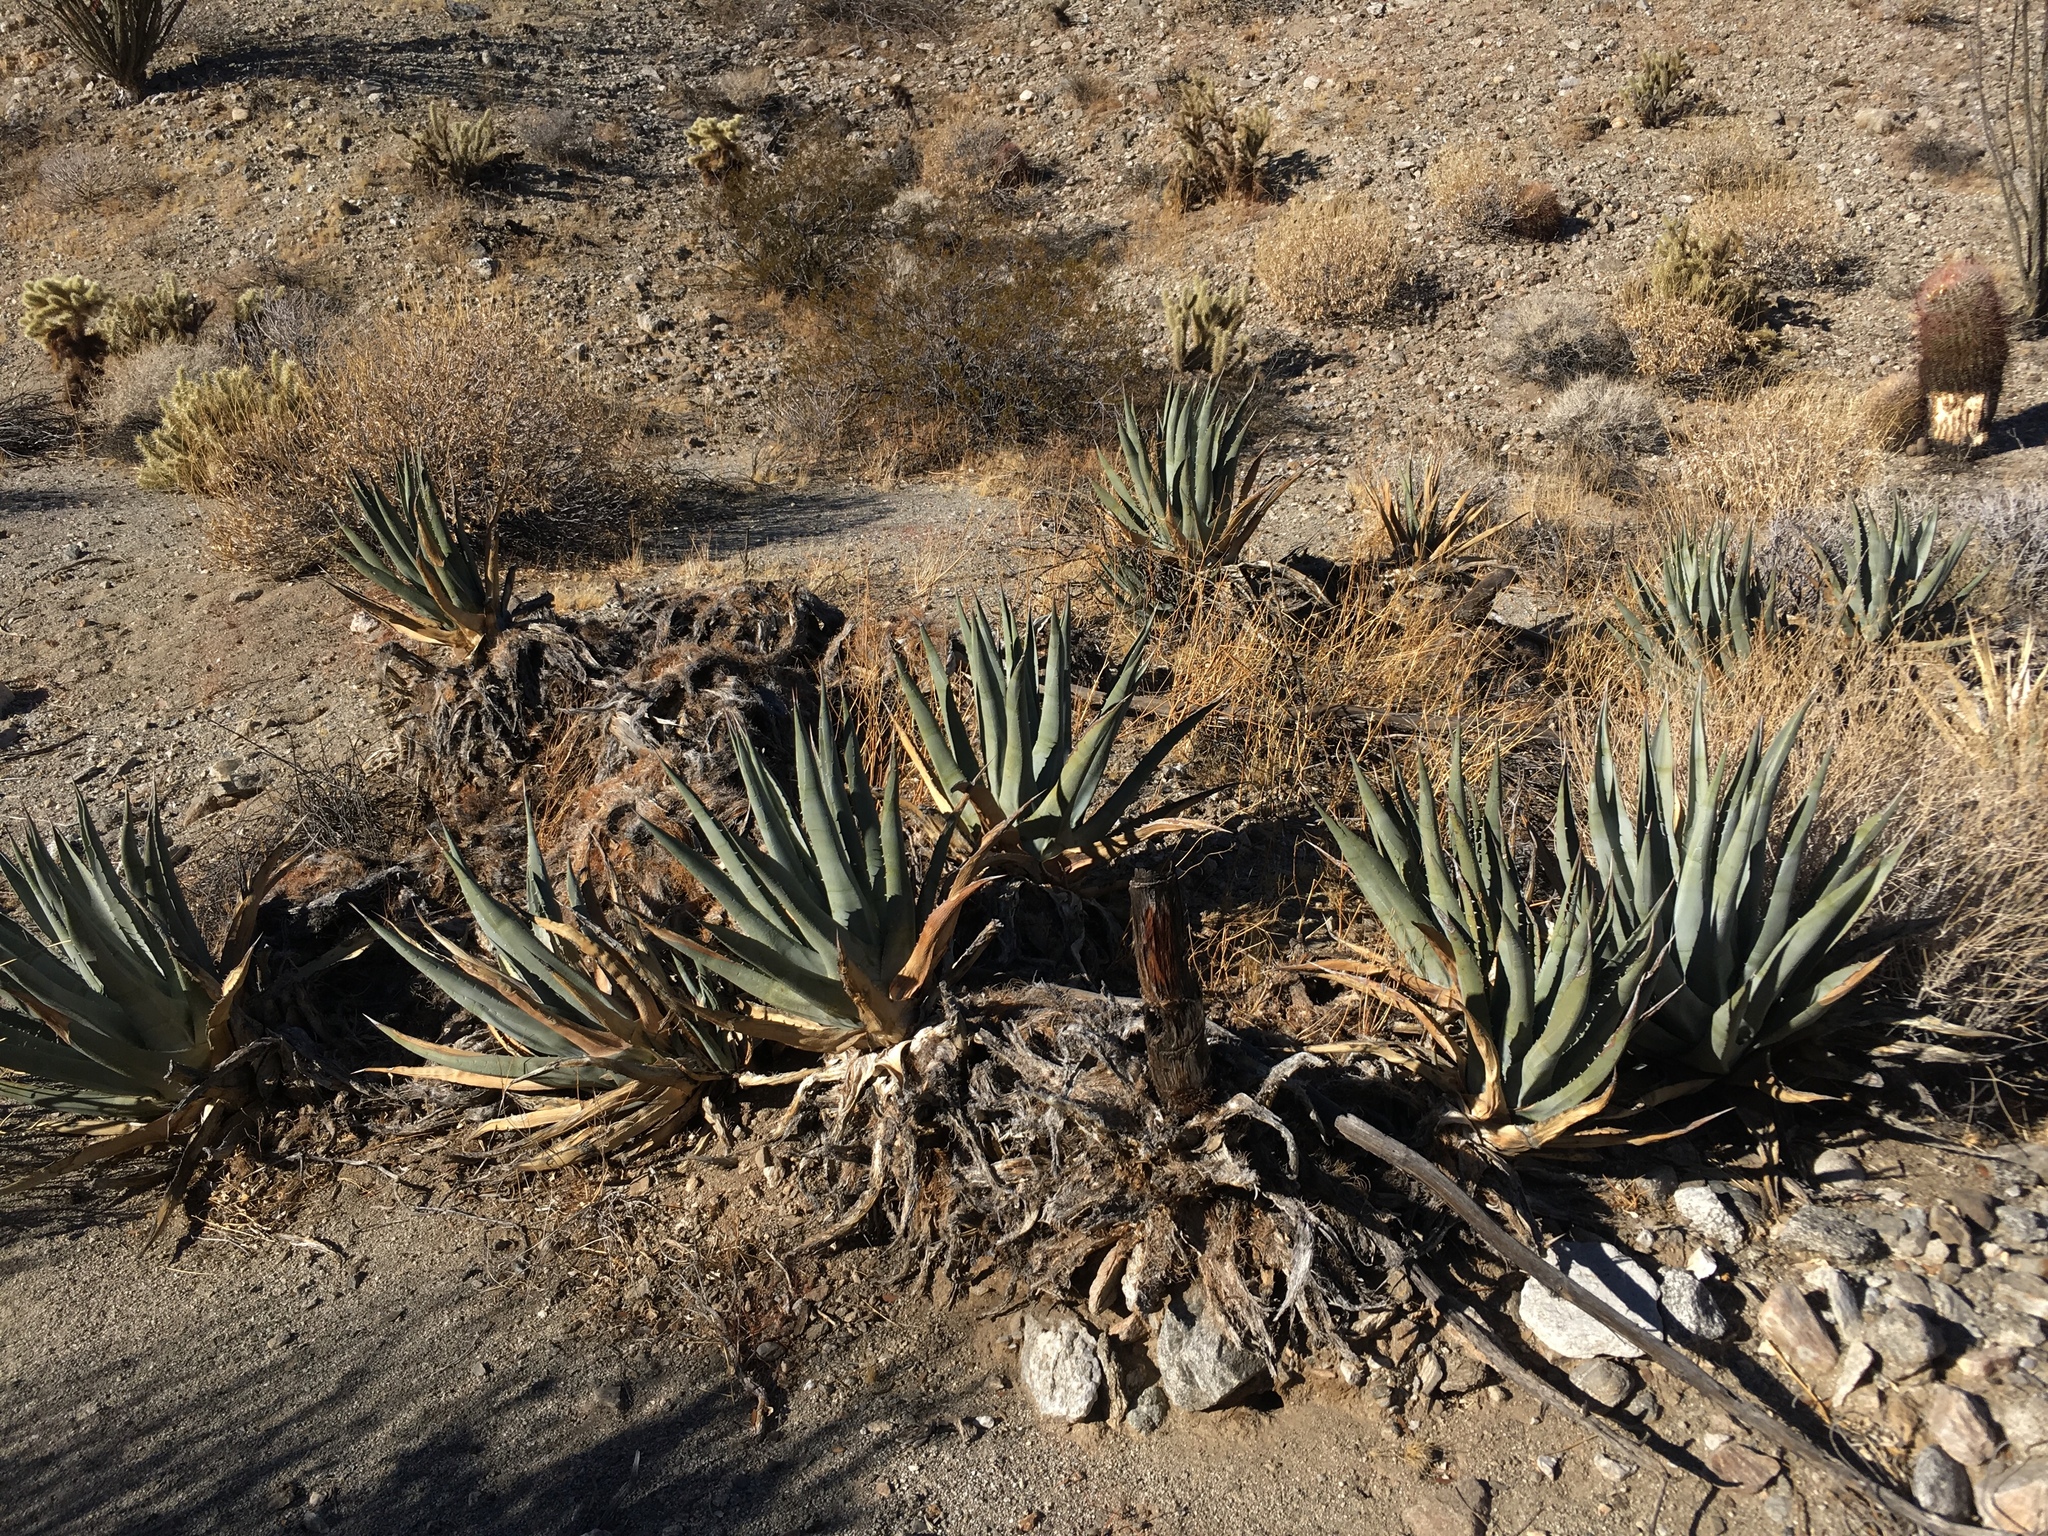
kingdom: Plantae
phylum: Tracheophyta
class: Liliopsida
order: Asparagales
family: Asparagaceae
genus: Agave
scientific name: Agave deserti
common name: Desert agave
